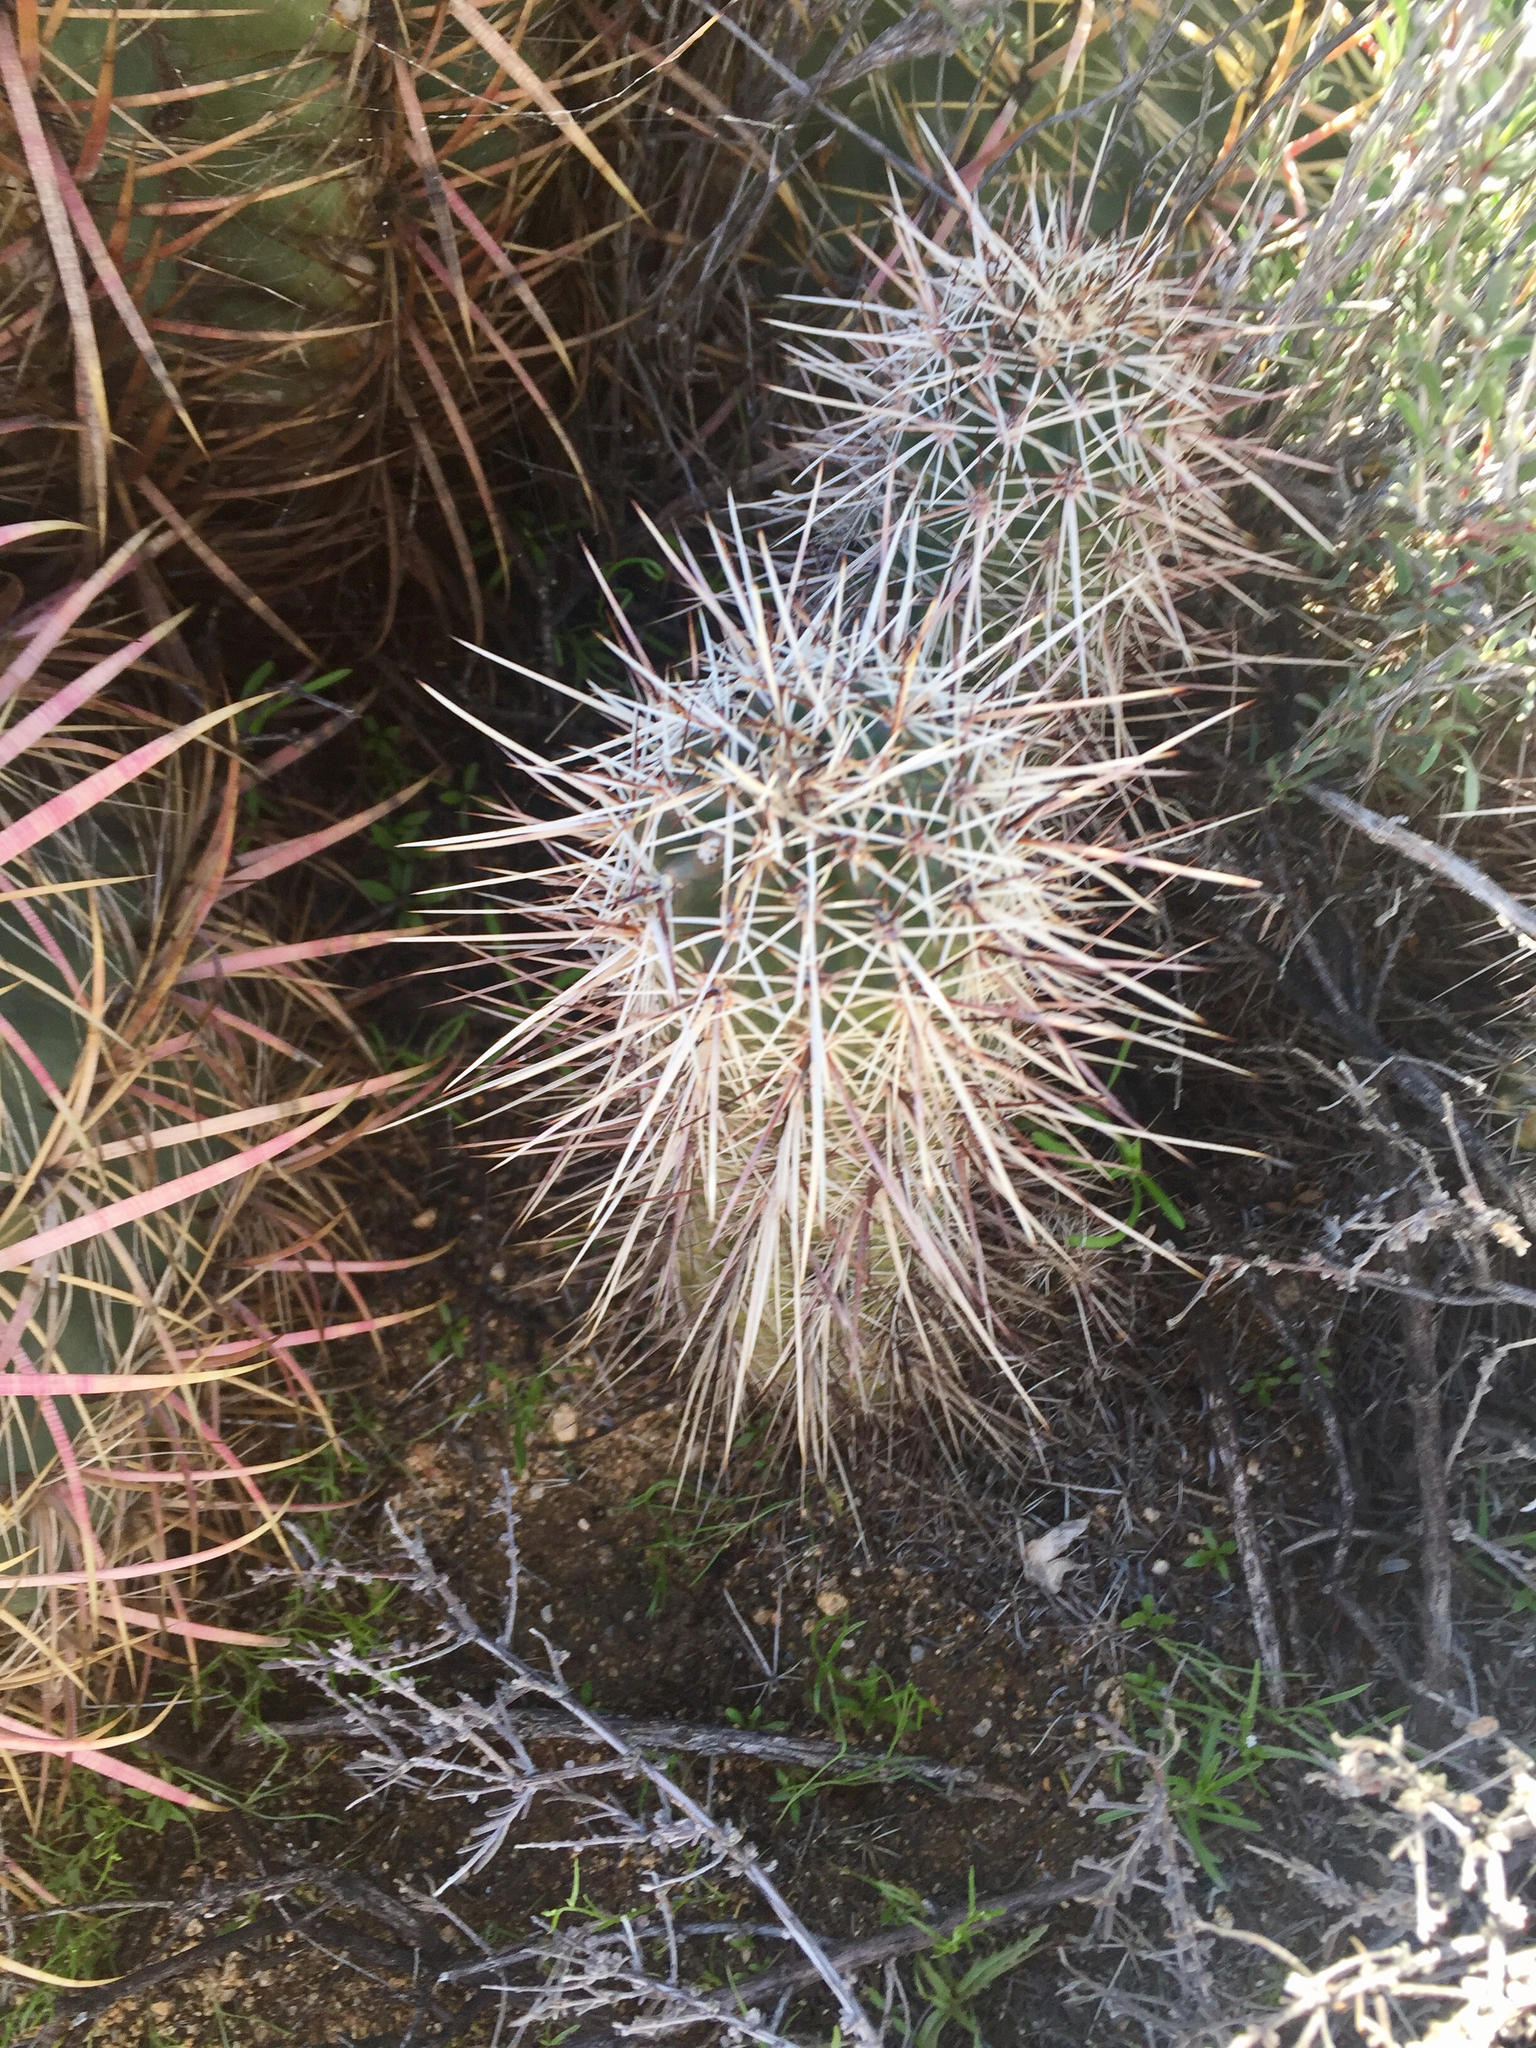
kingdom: Plantae
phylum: Tracheophyta
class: Magnoliopsida
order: Caryophyllales
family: Cactaceae
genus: Echinocereus
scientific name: Echinocereus engelmannii
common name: Engelmann's hedgehog cactus
